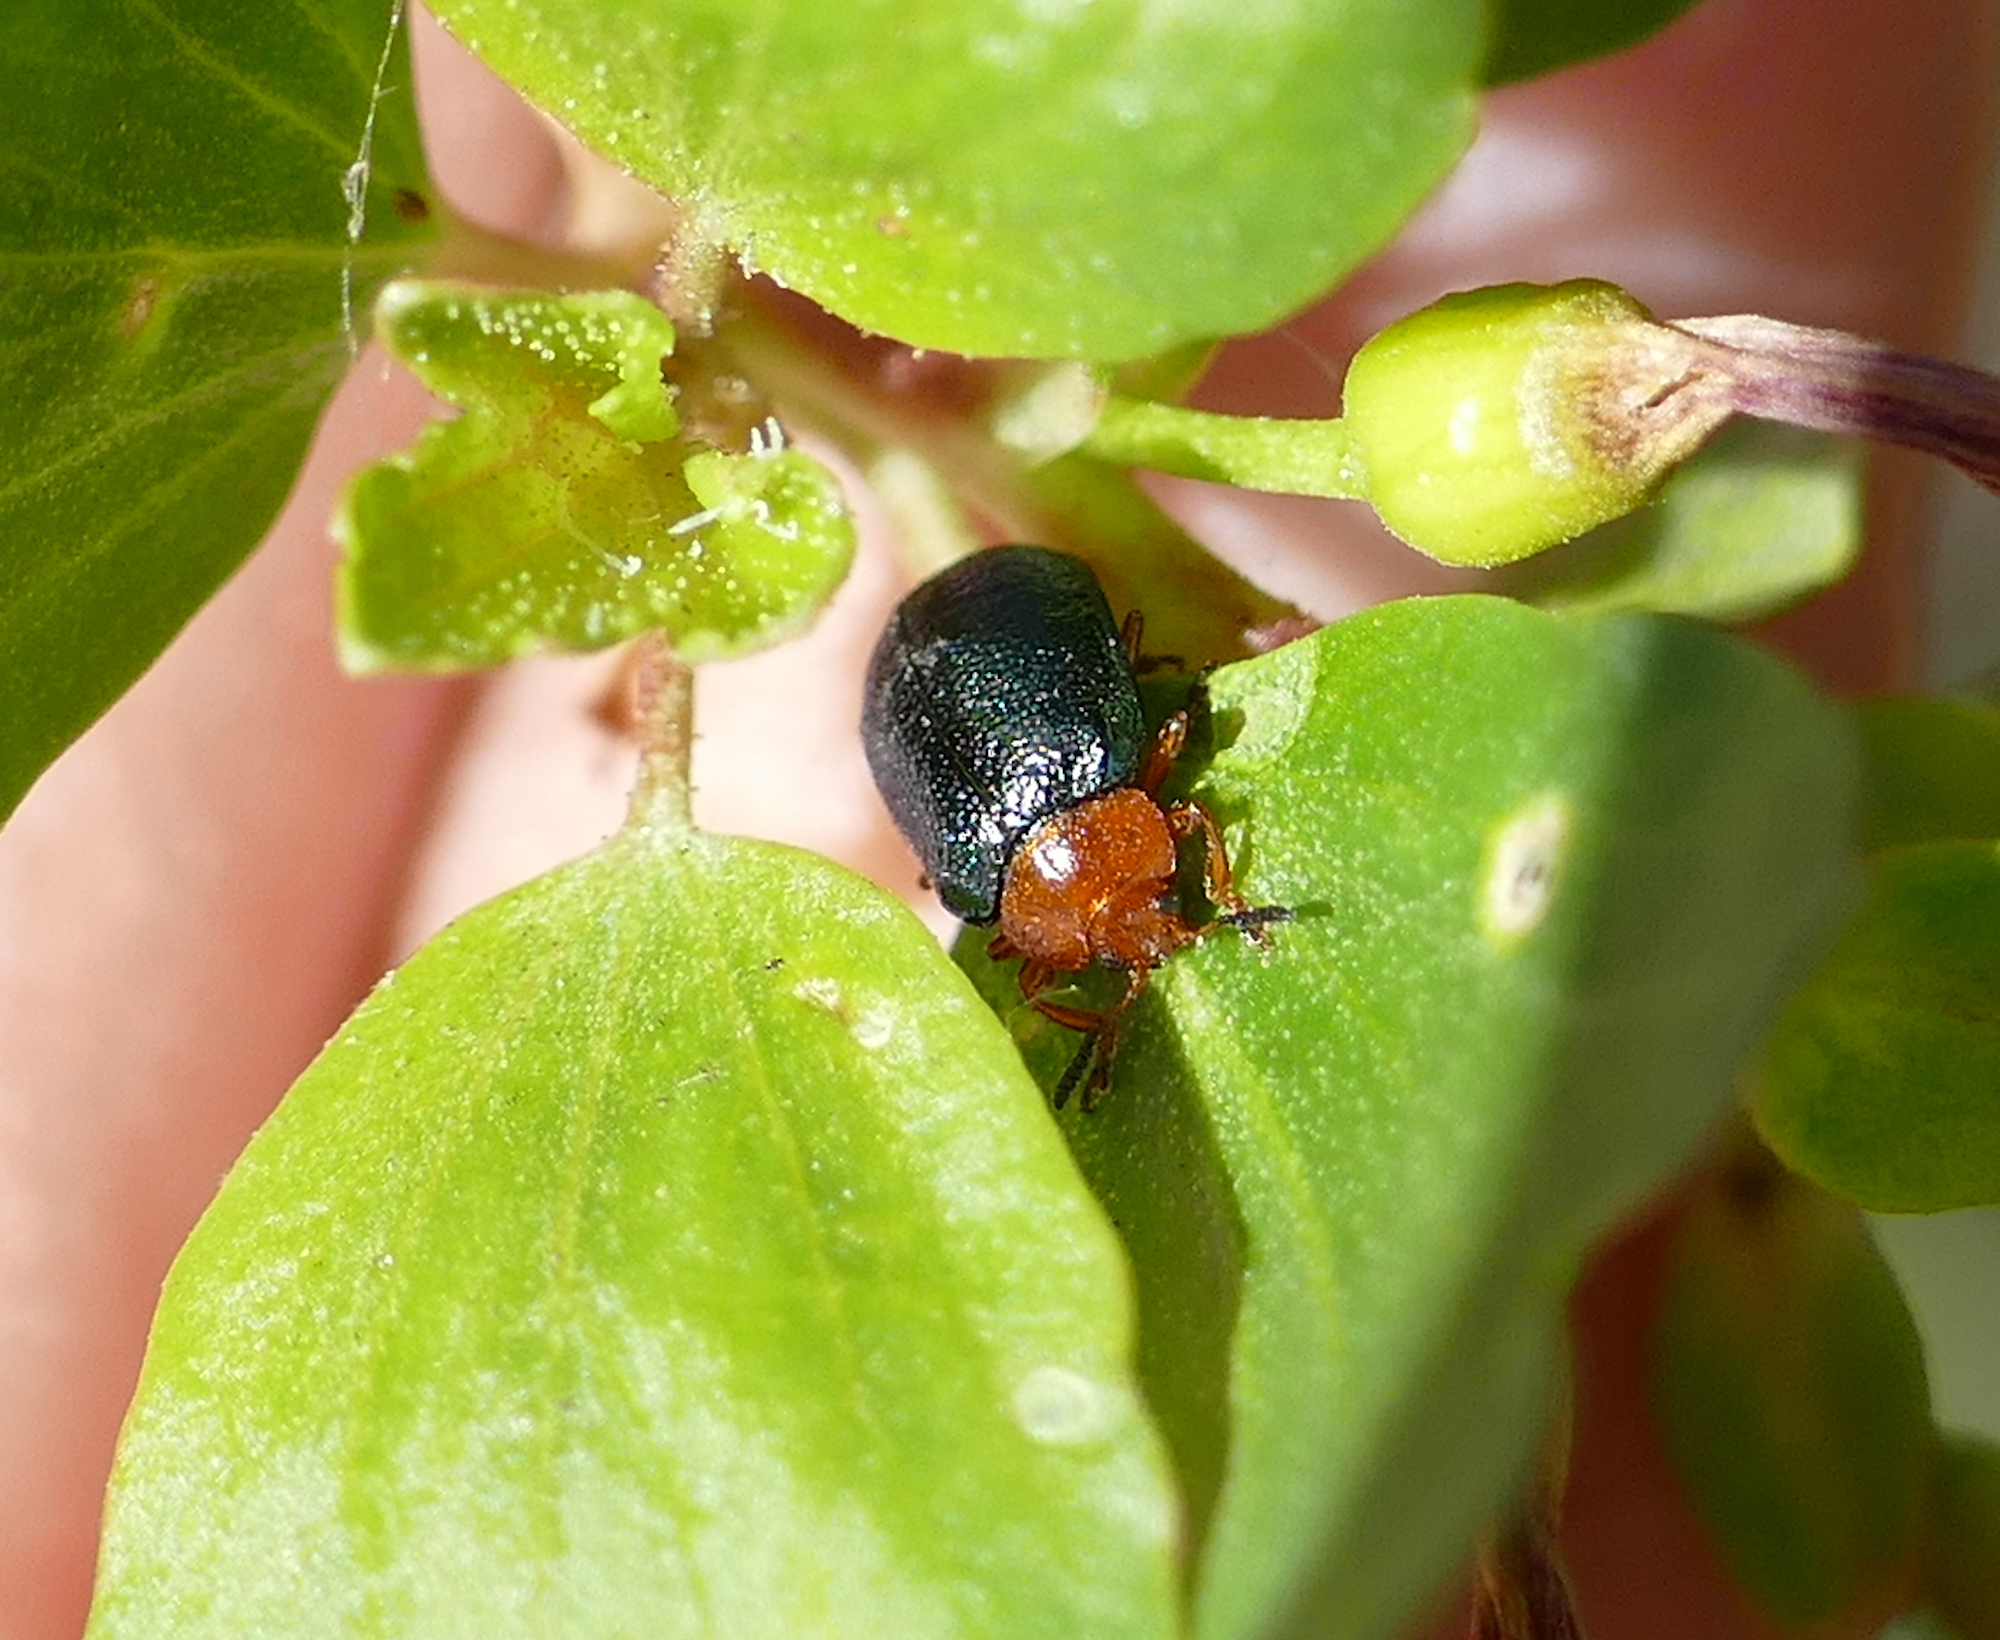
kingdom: Animalia
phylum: Arthropoda
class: Insecta
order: Coleoptera
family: Chrysomelidae
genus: Plagiodera
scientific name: Plagiodera arizonae
